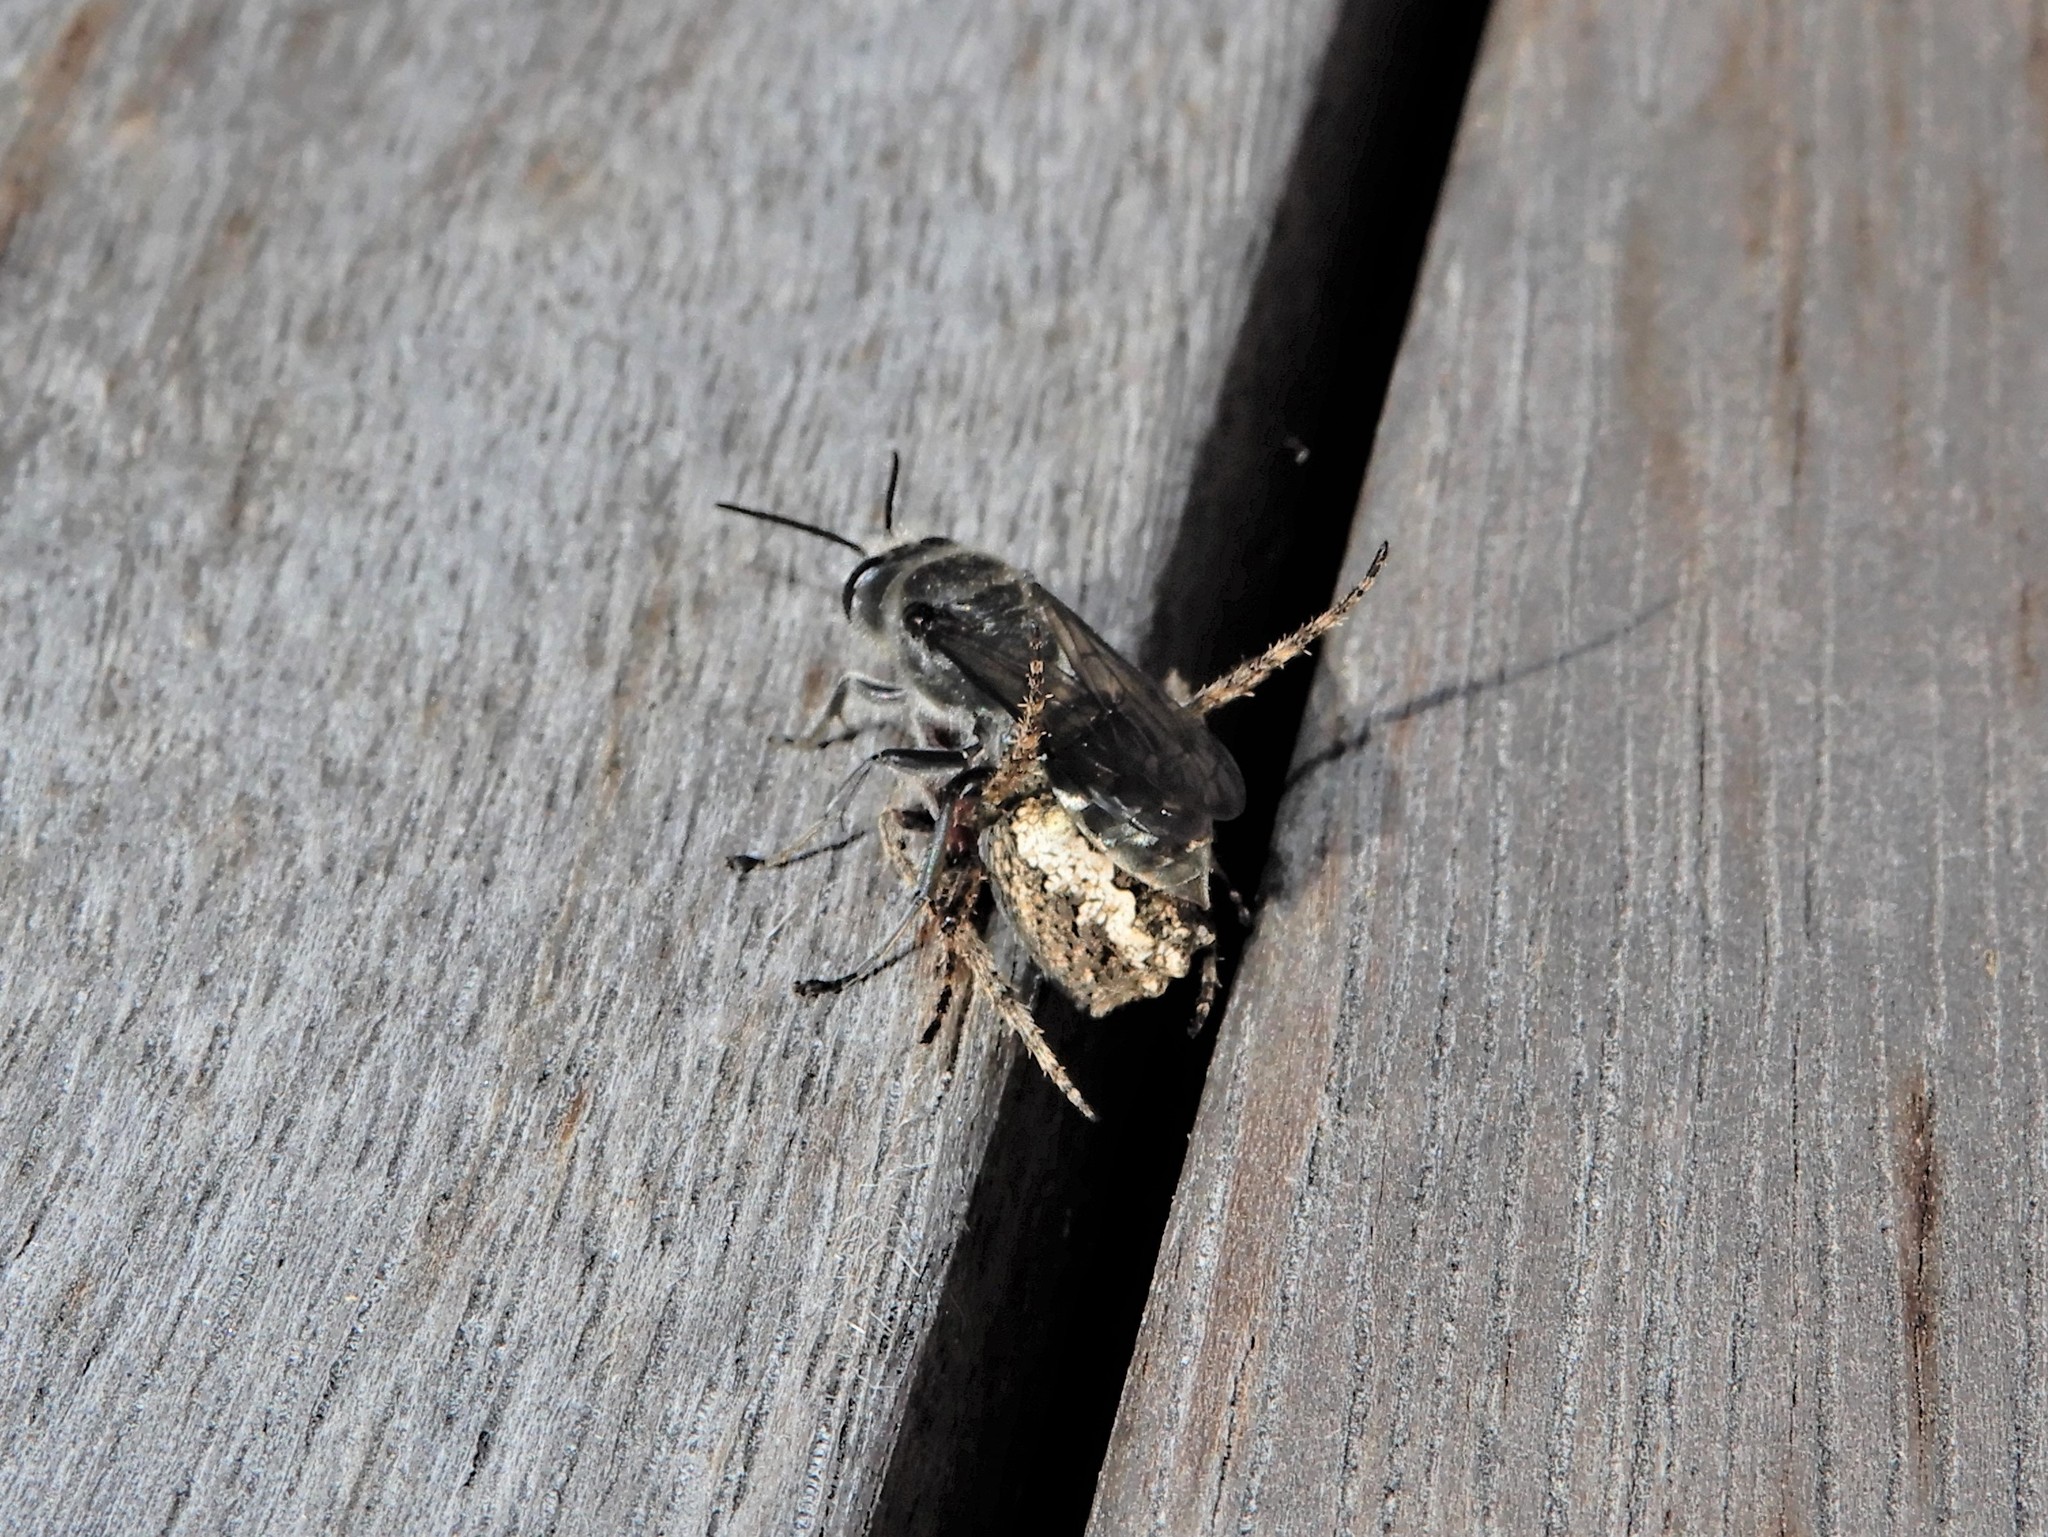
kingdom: Animalia
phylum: Arthropoda
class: Insecta
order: Hymenoptera
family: Crabronidae
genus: Pison
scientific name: Pison spinolae
